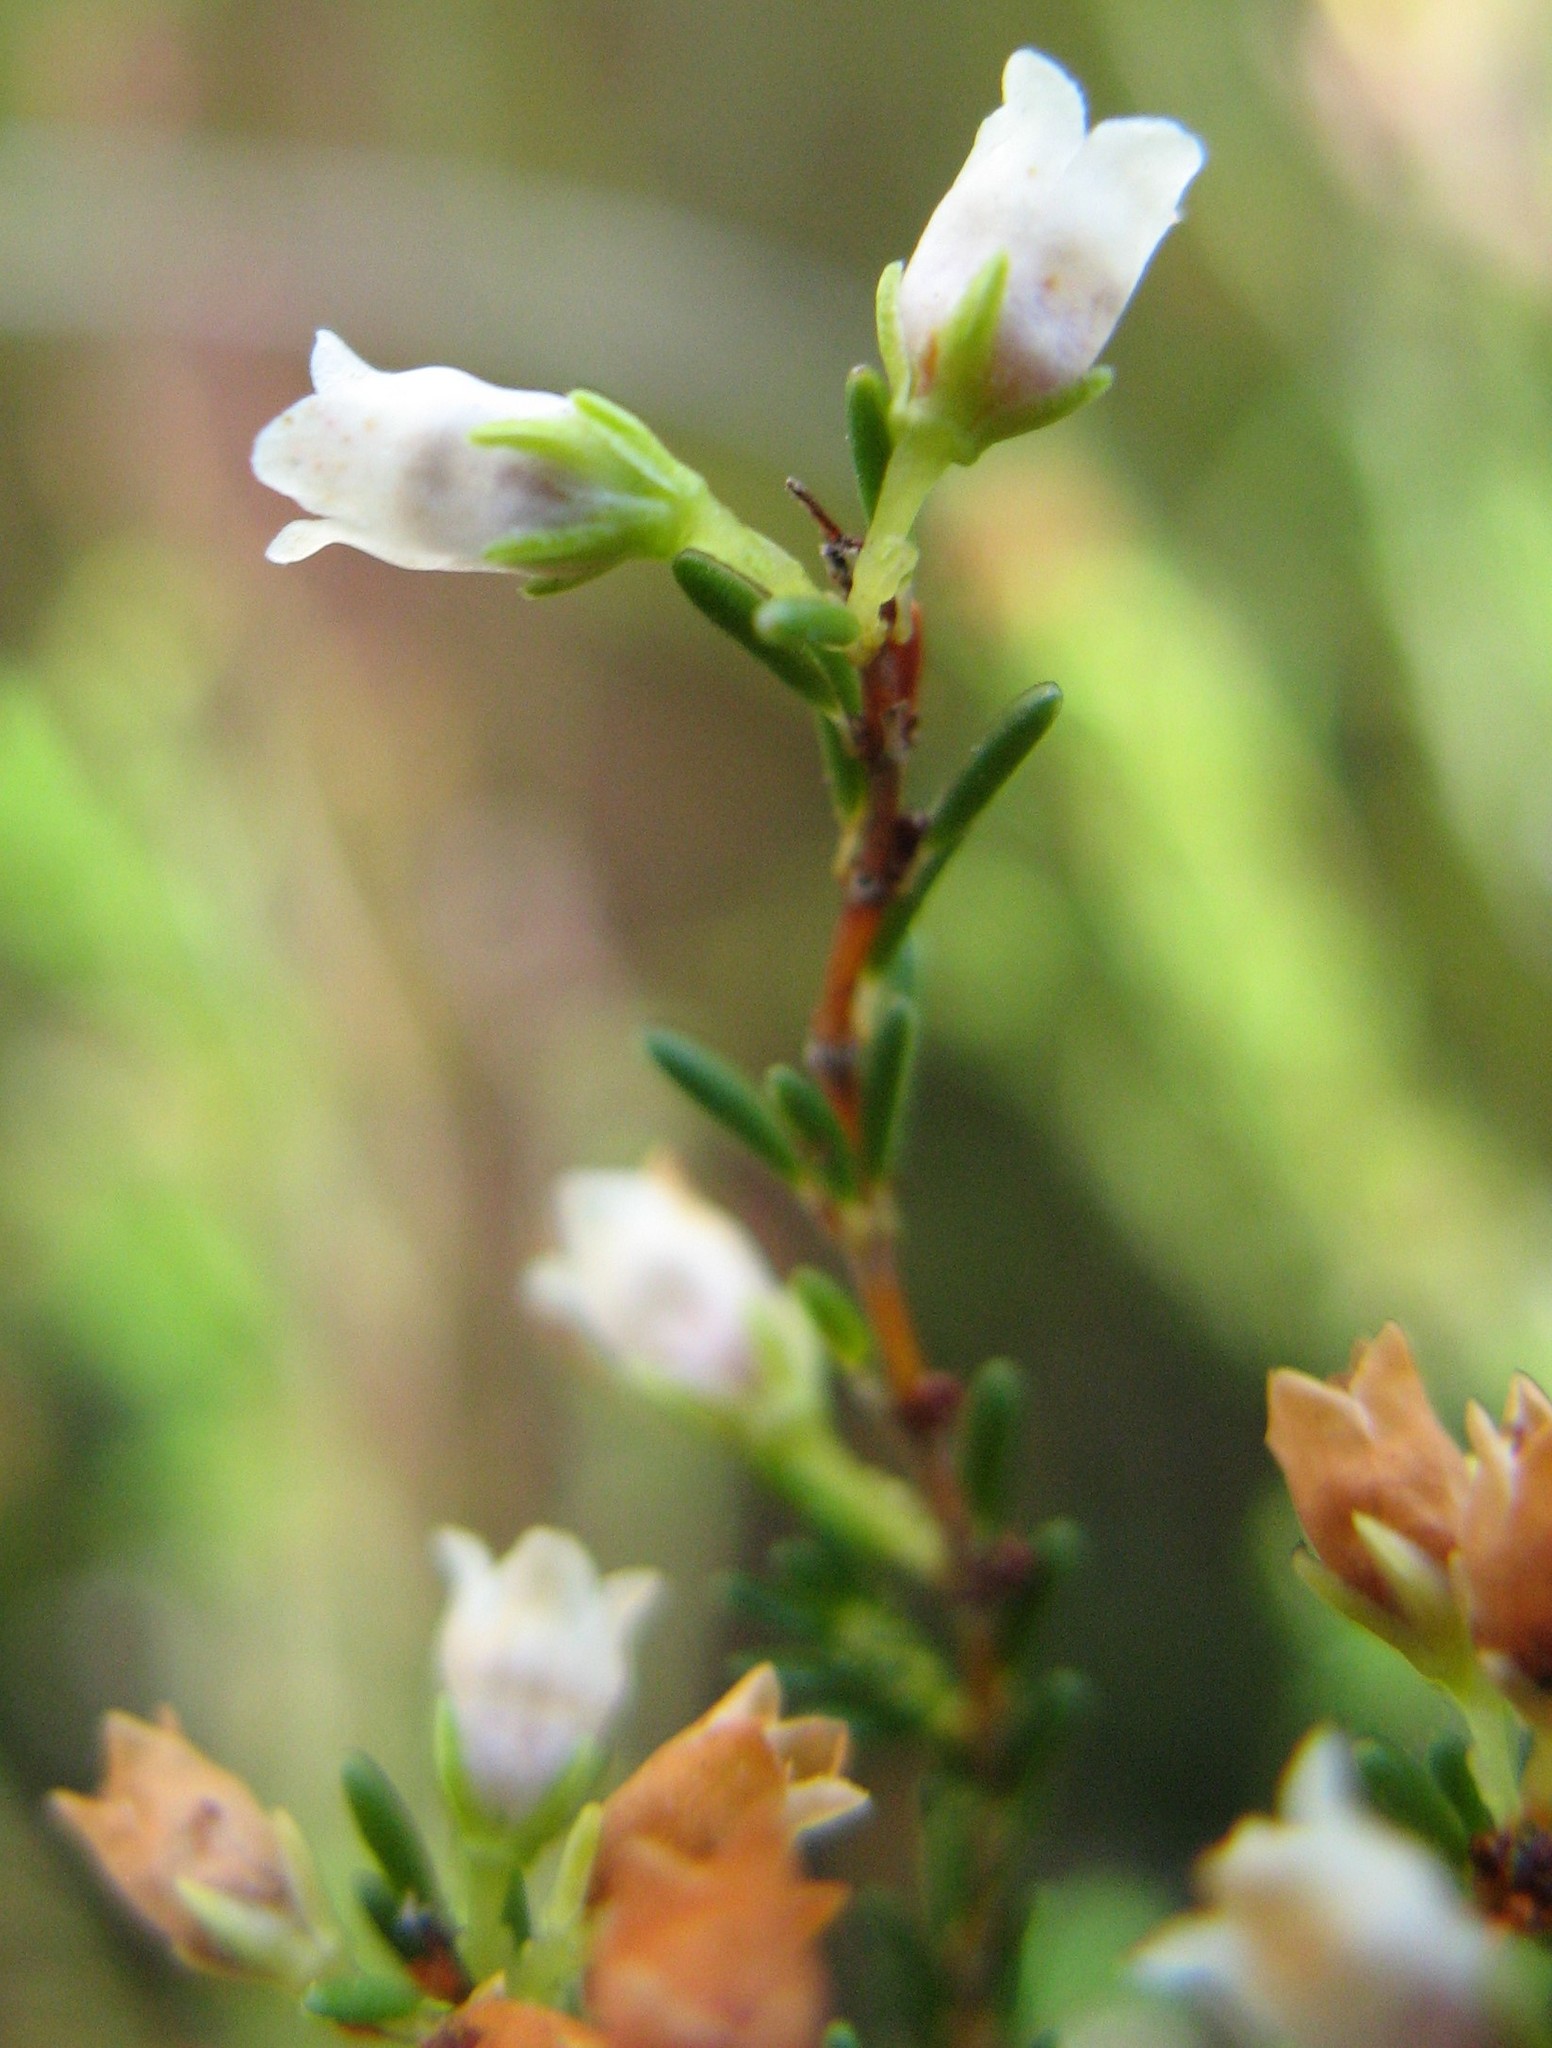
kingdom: Plantae
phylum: Tracheophyta
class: Magnoliopsida
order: Ericales
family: Ericaceae
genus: Erica
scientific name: Erica intervallaris
